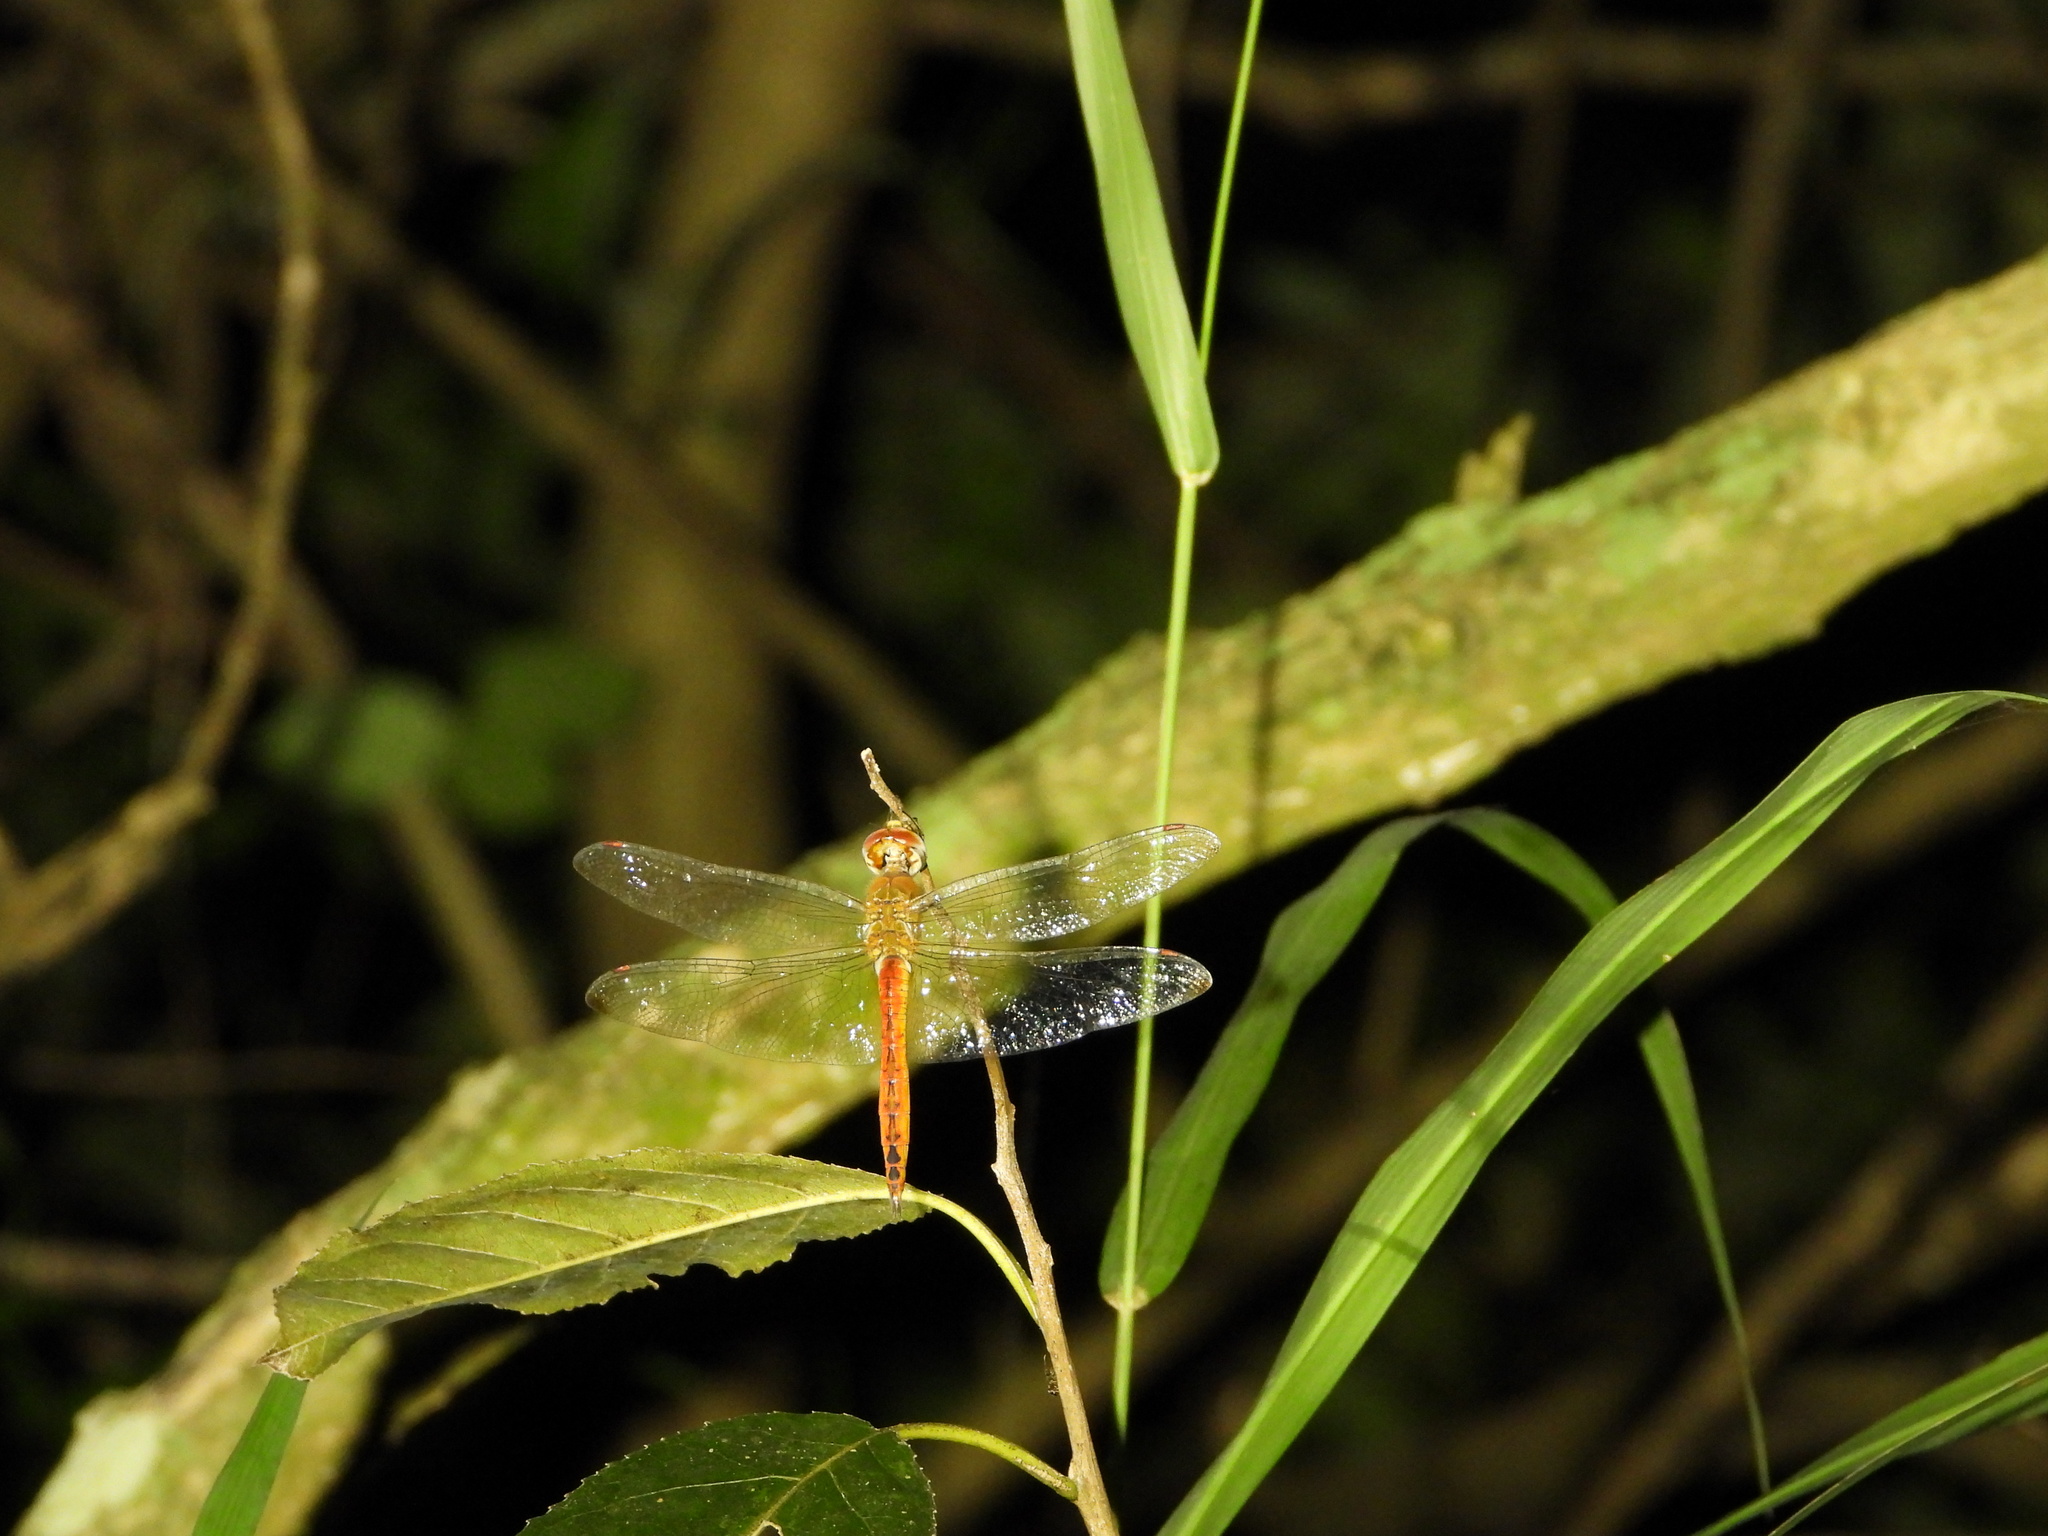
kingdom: Animalia
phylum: Arthropoda
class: Insecta
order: Odonata
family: Libellulidae
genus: Pantala
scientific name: Pantala flavescens
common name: Wandering glider
